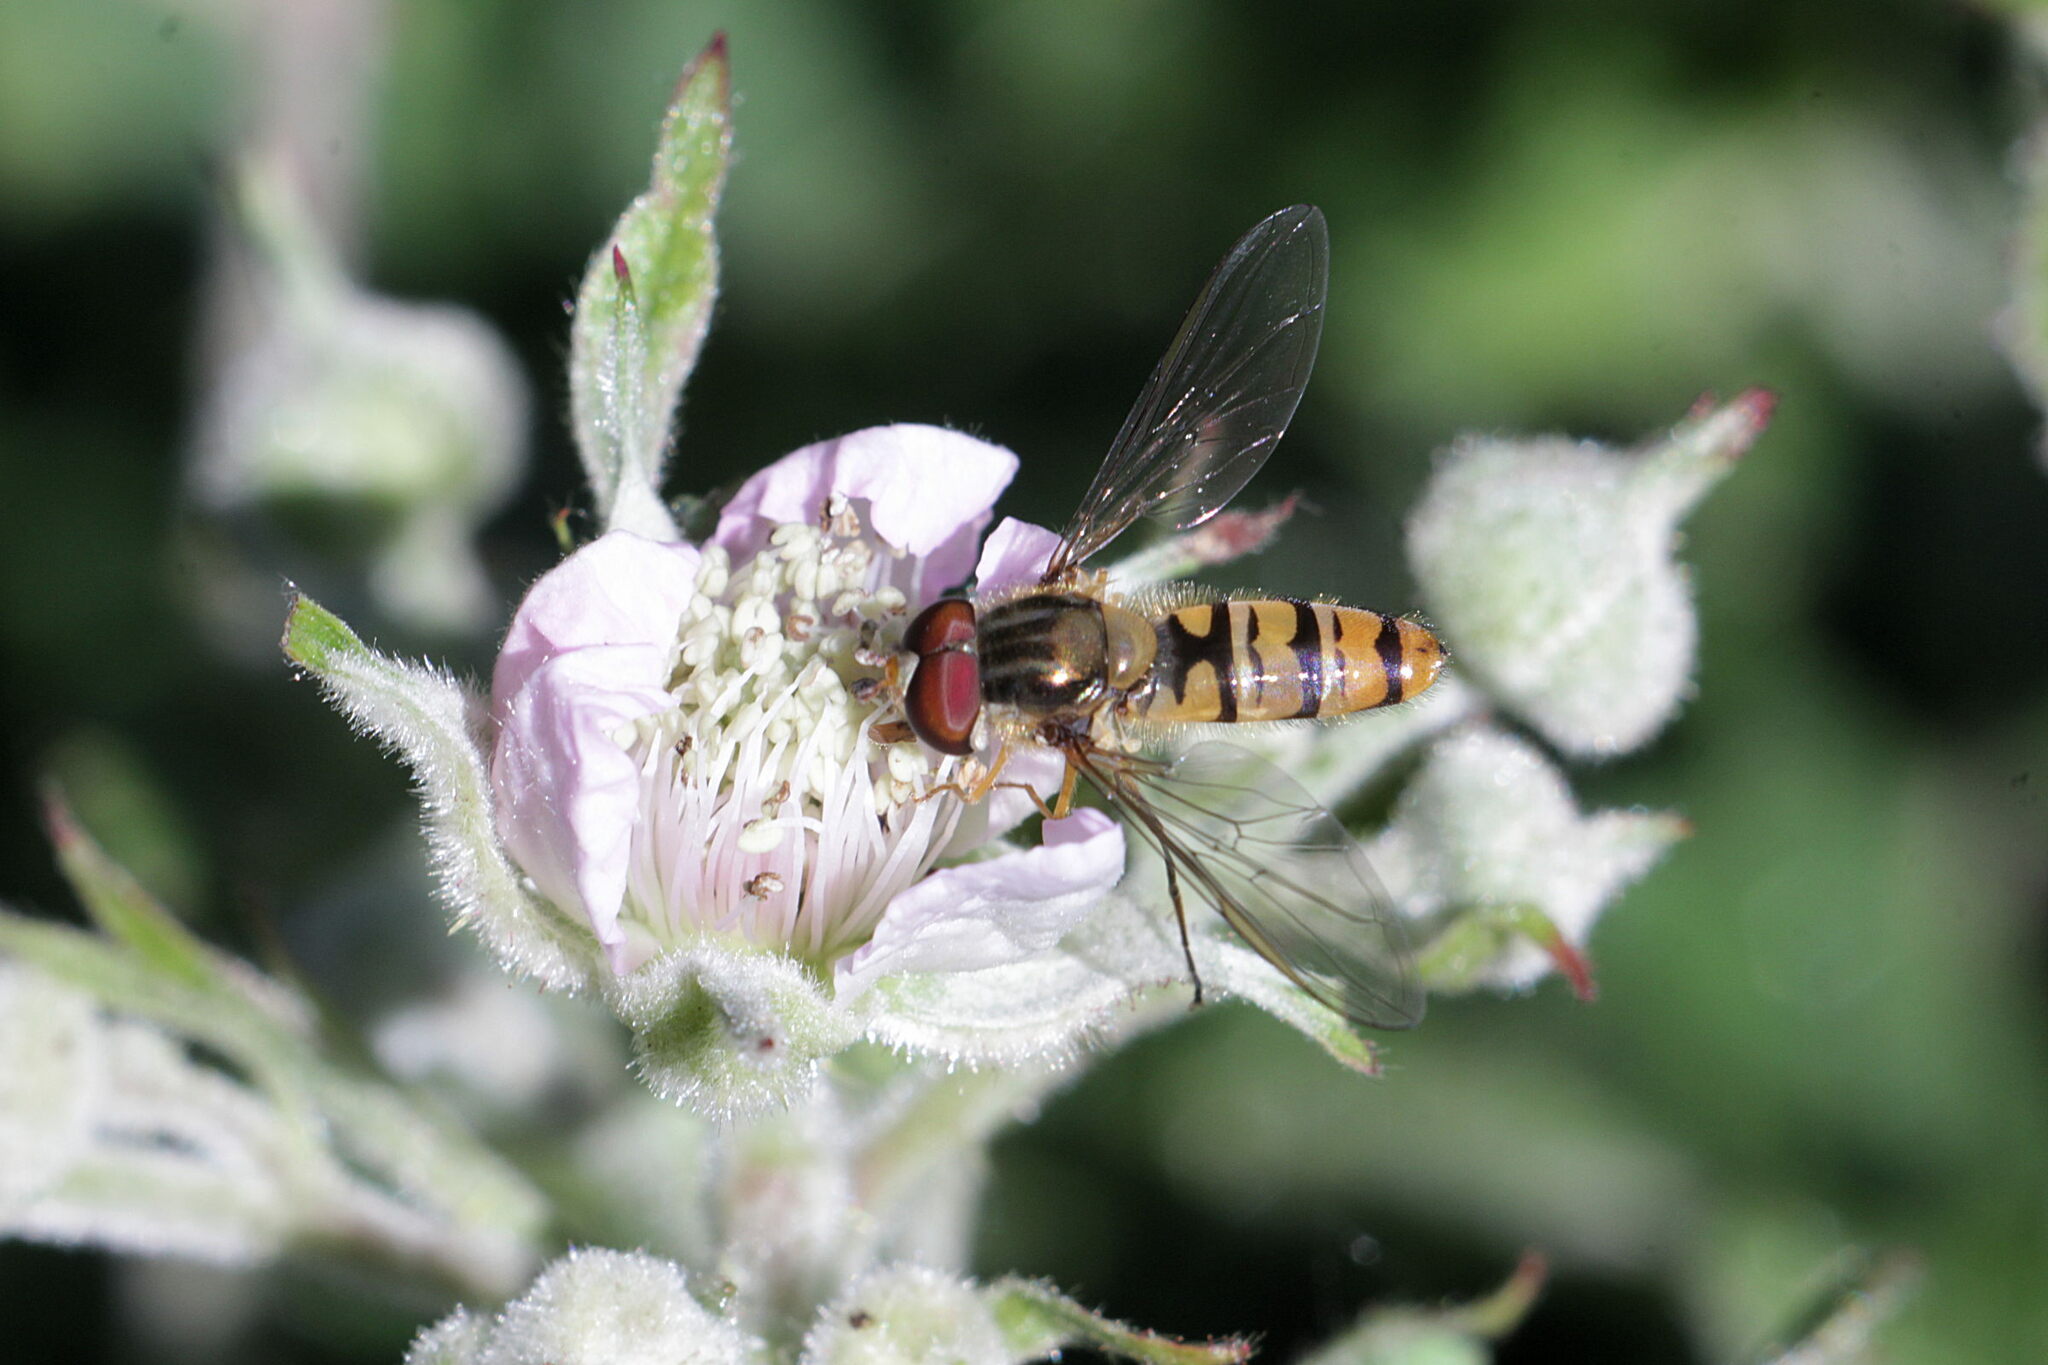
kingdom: Animalia
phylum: Arthropoda
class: Insecta
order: Diptera
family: Syrphidae
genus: Episyrphus
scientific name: Episyrphus balteatus
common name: Marmalade hoverfly
